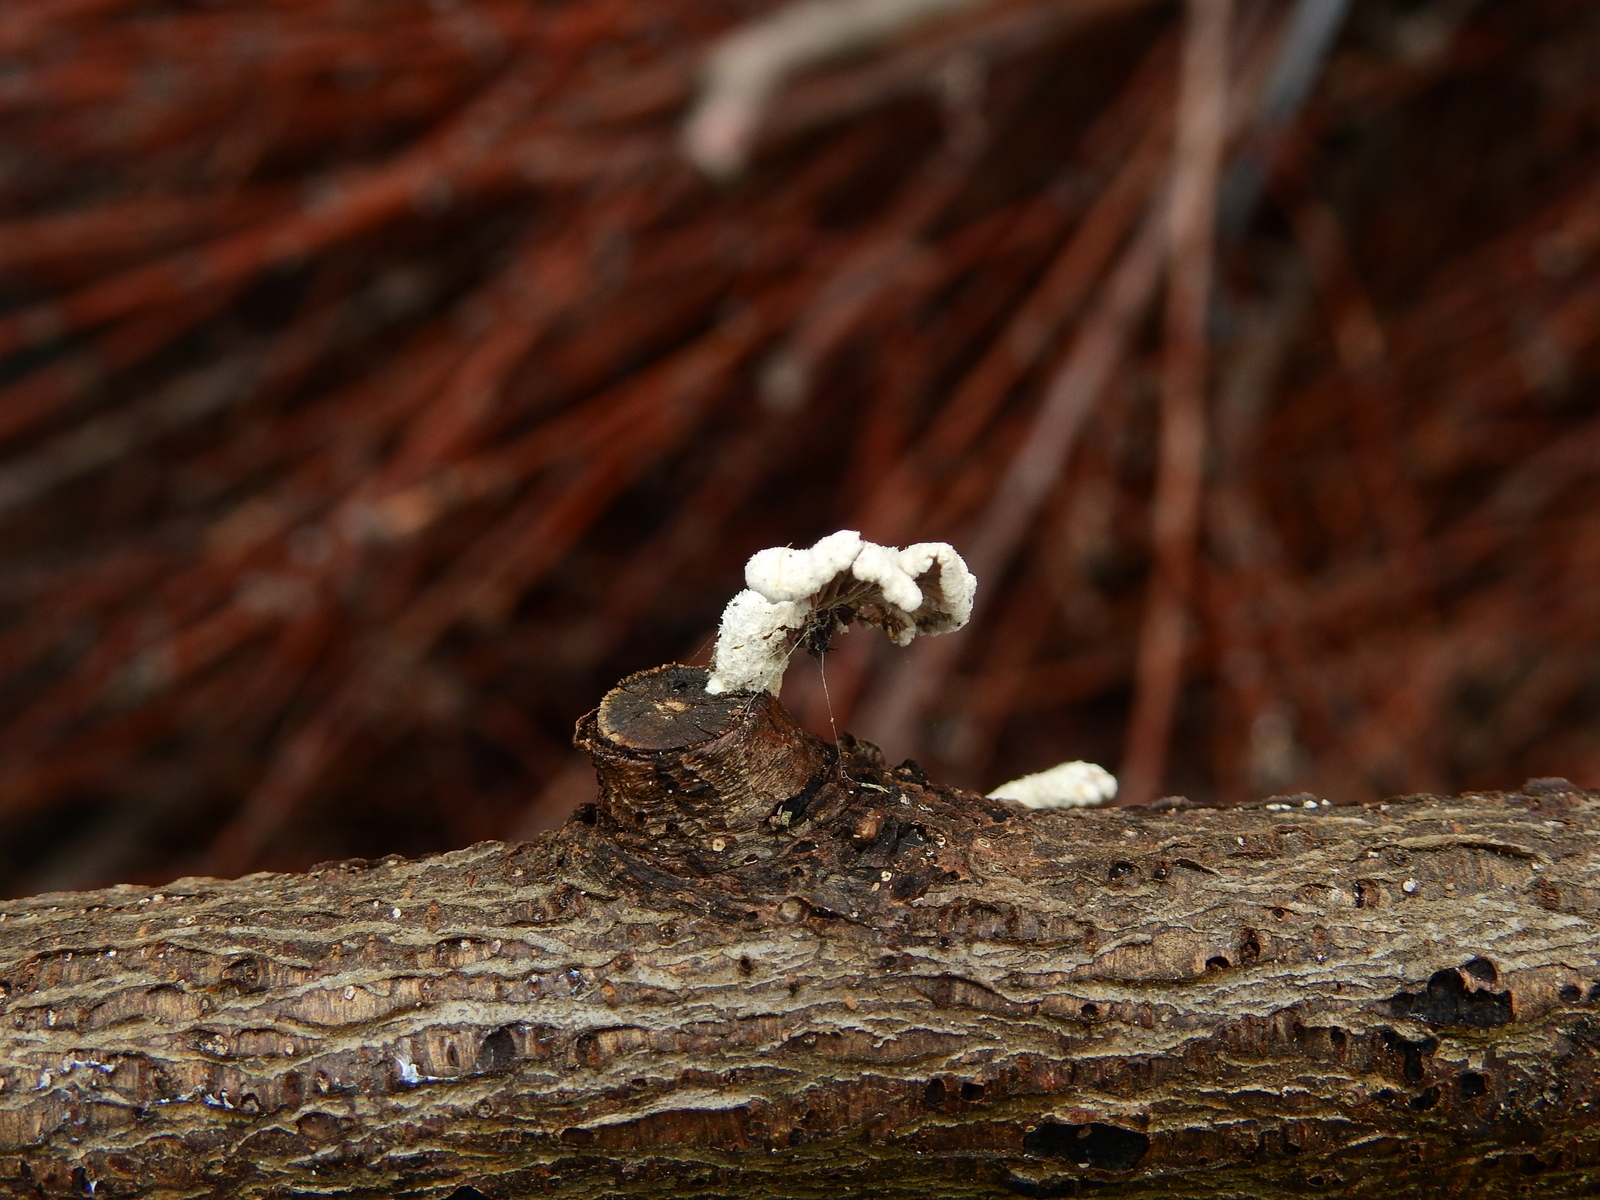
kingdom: Fungi
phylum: Basidiomycota
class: Agaricomycetes
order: Agaricales
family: Schizophyllaceae
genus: Schizophyllum
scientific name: Schizophyllum commune
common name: Common porecrust
